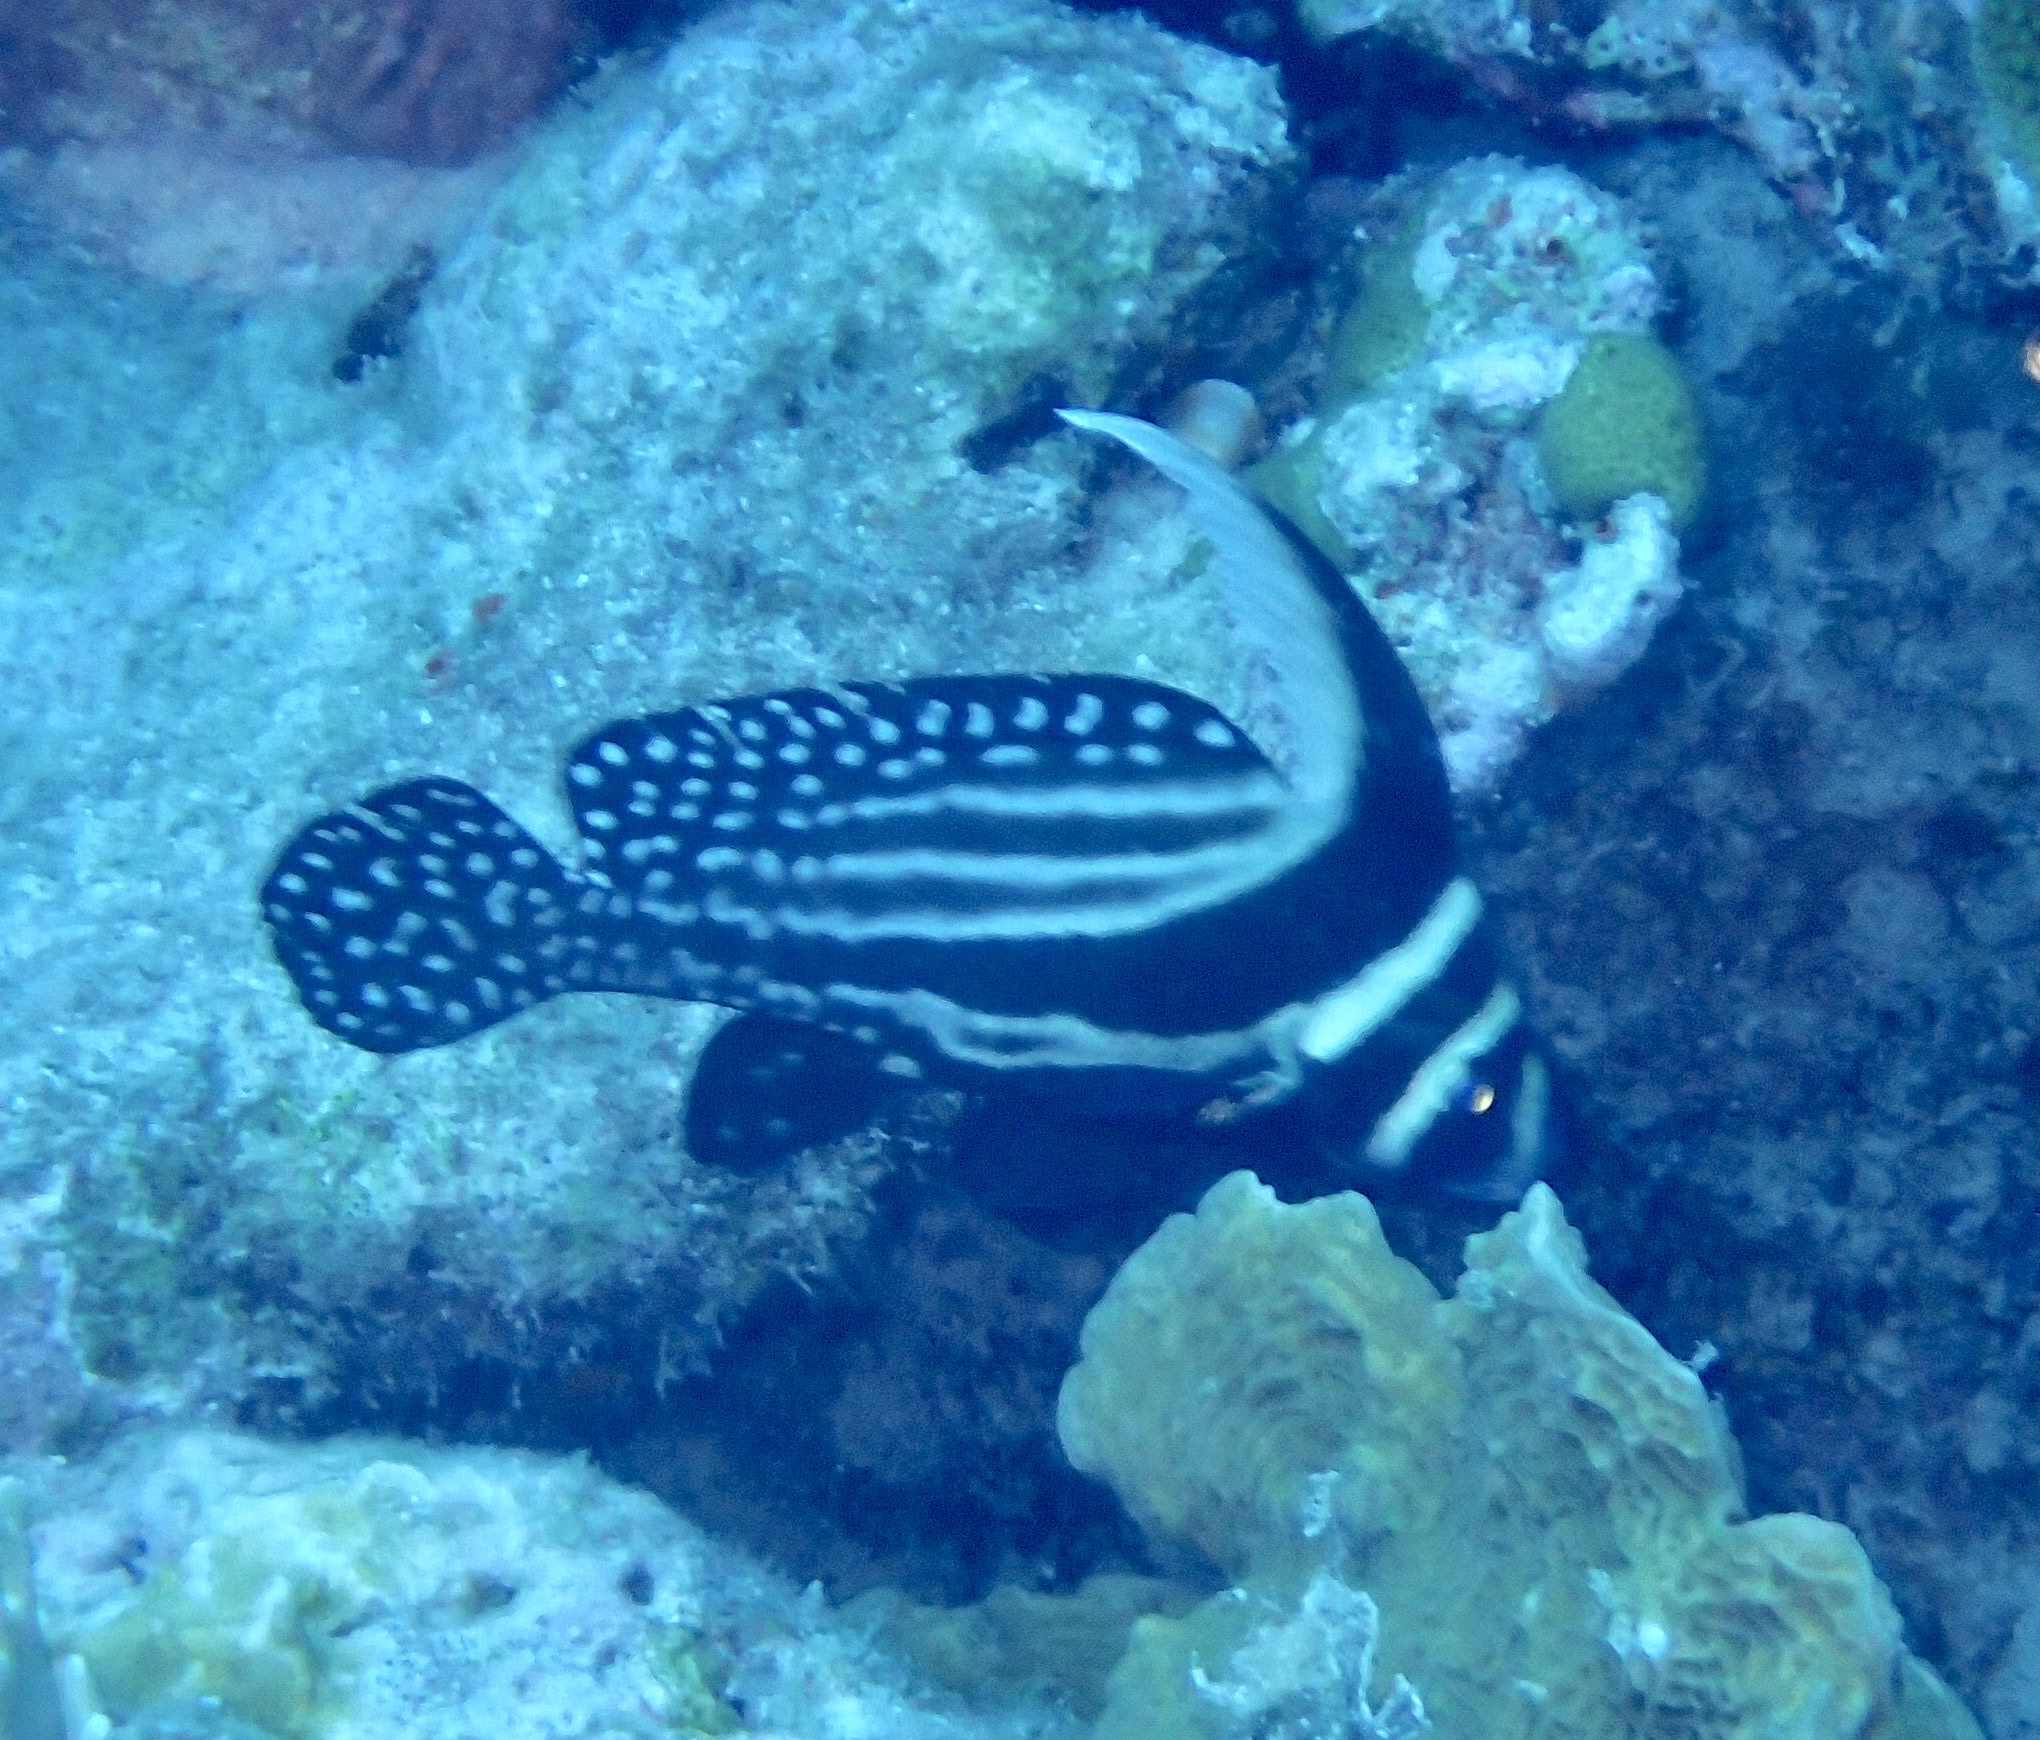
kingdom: Animalia
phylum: Chordata
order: Perciformes
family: Sciaenidae
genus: Equetus
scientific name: Equetus punctatus
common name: Spotted drum
